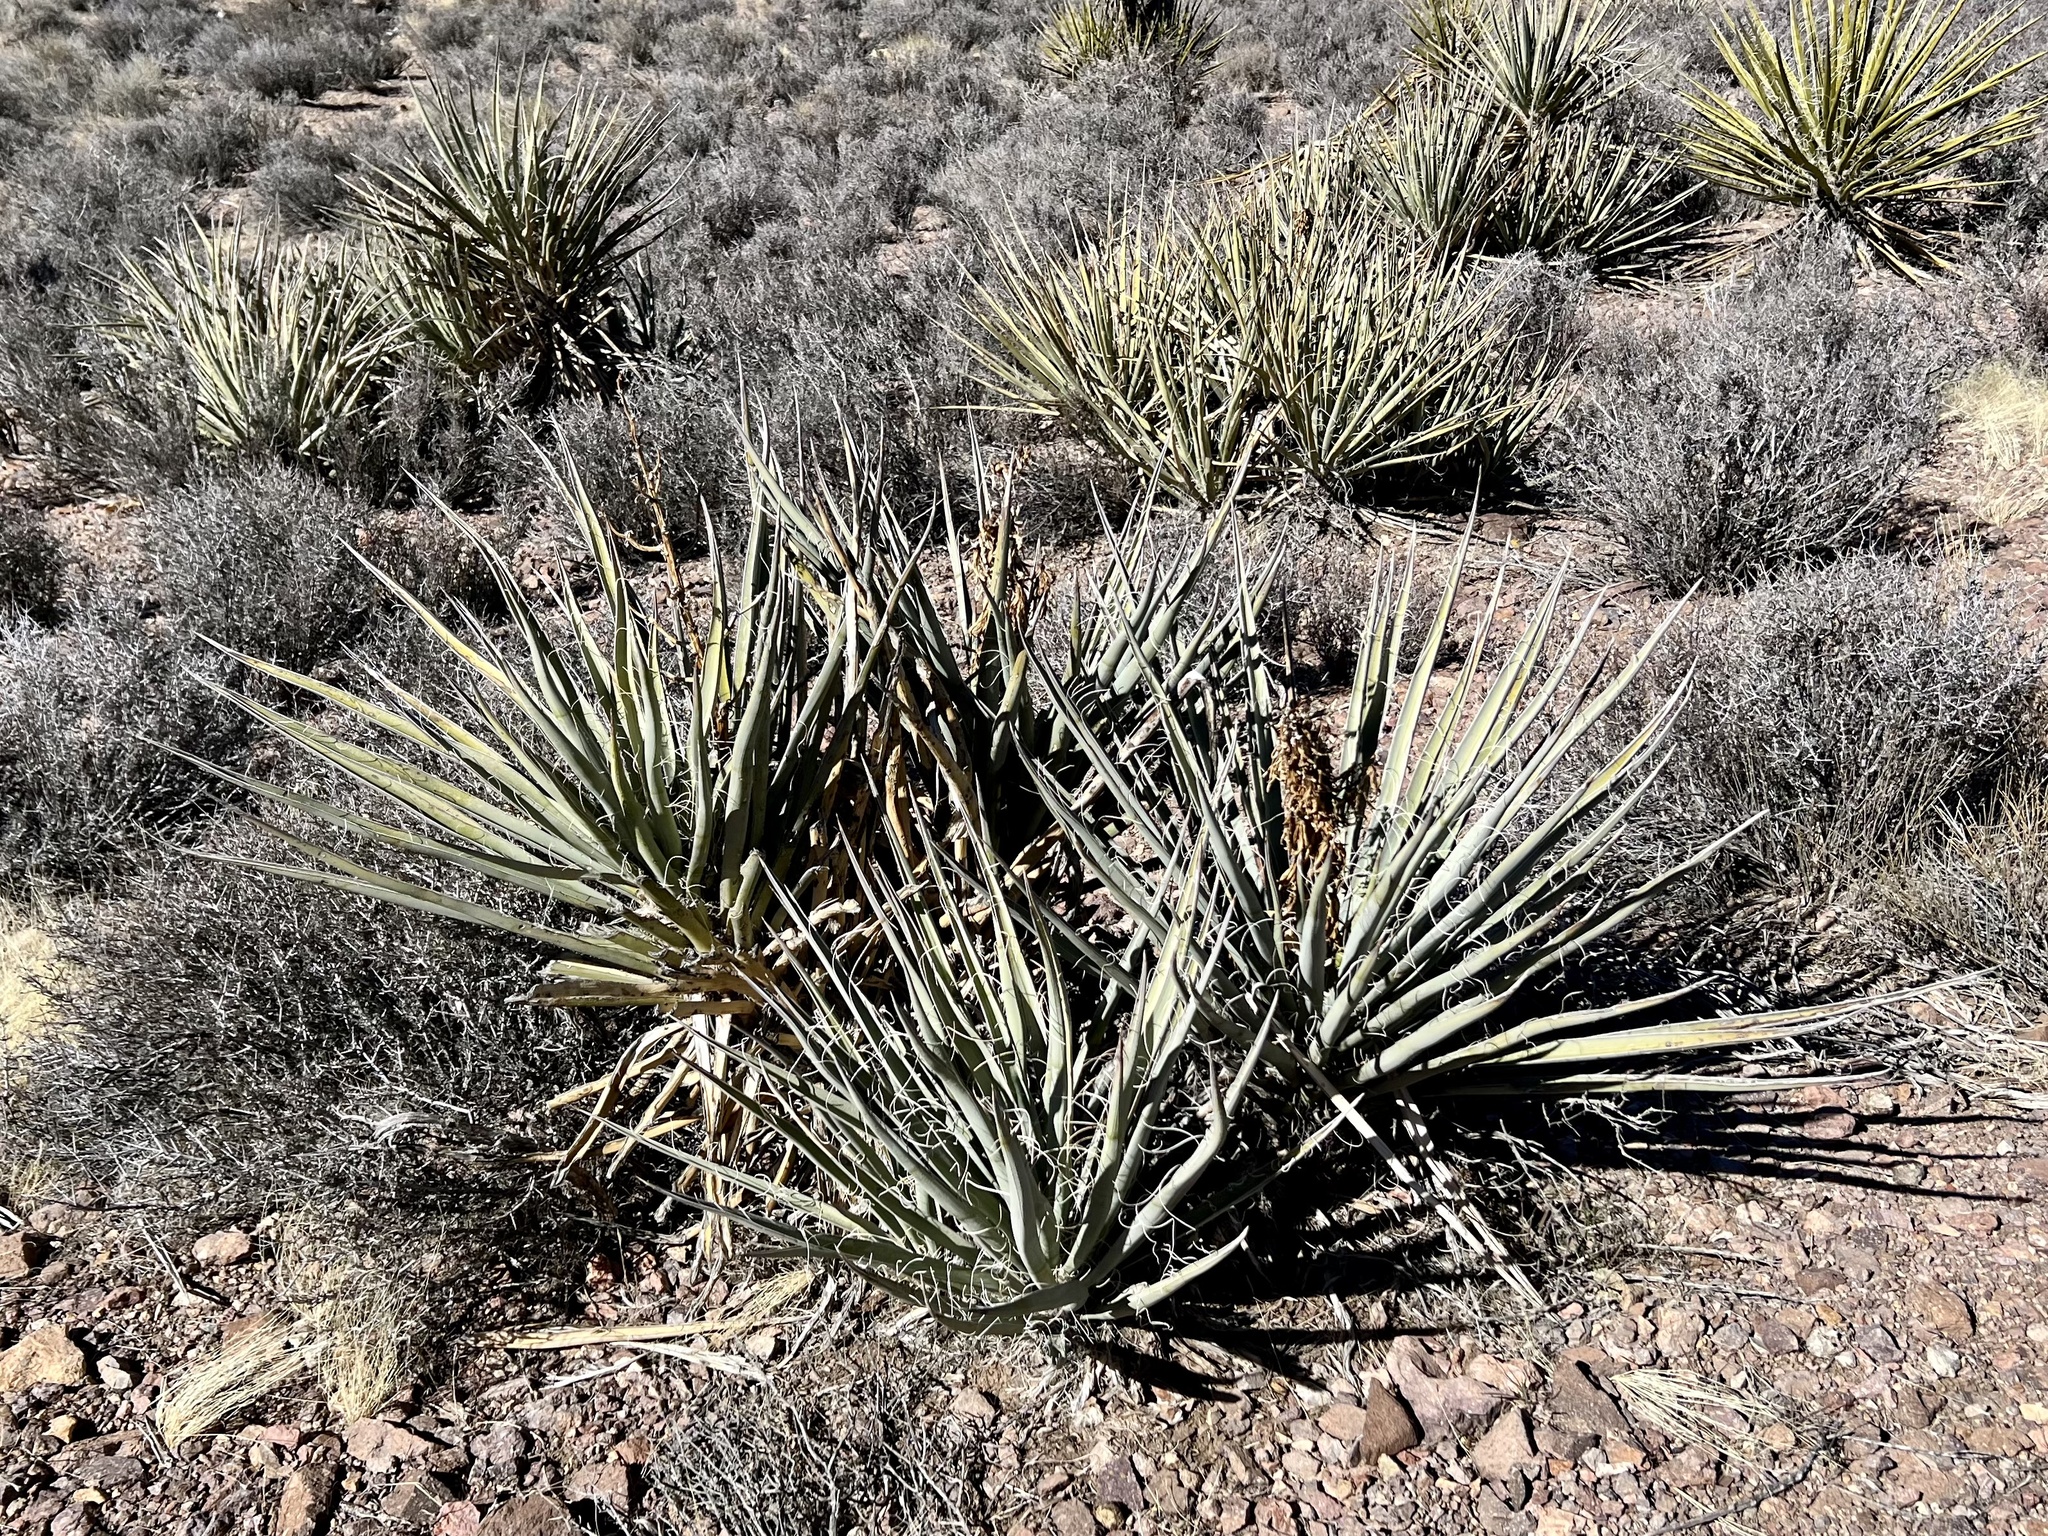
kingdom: Plantae
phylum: Tracheophyta
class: Liliopsida
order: Asparagales
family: Asparagaceae
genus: Yucca
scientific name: Yucca baccata
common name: Banana yucca
